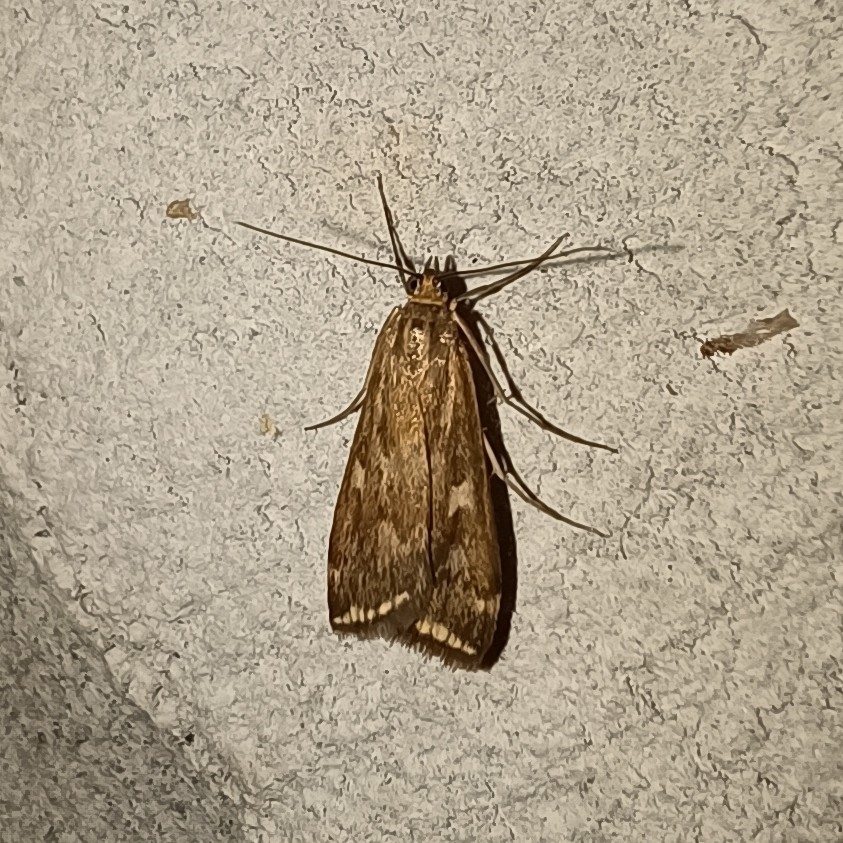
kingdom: Animalia
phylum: Arthropoda
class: Insecta
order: Lepidoptera
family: Crambidae
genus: Loxostege
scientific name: Loxostege sticticalis
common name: Crambid moth
